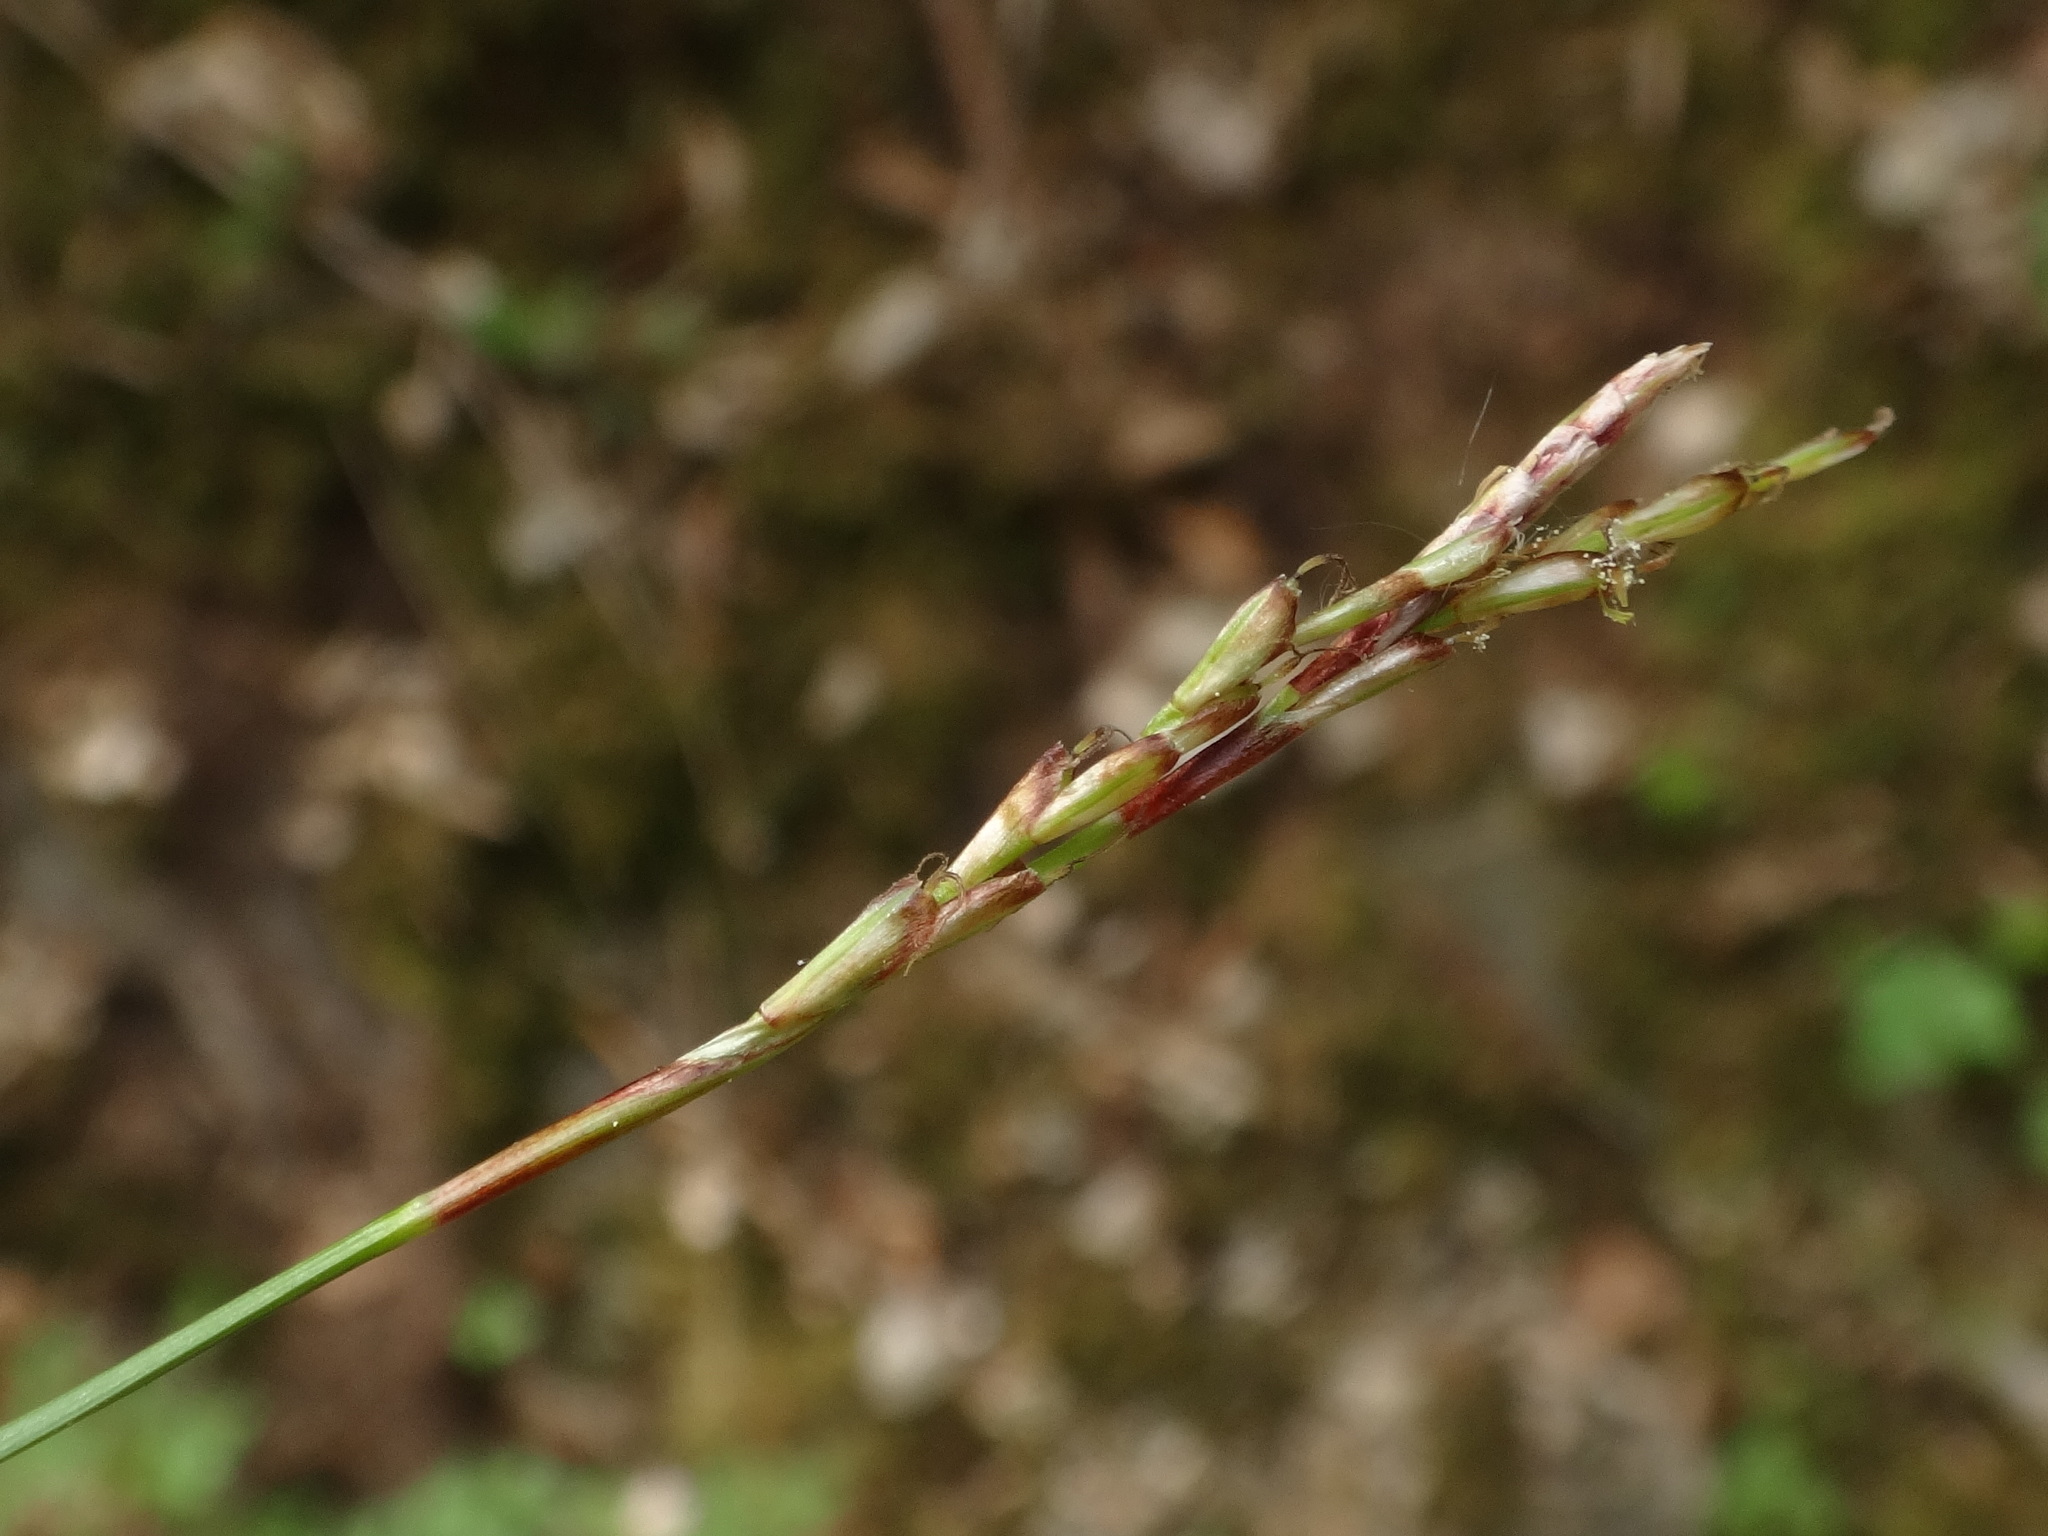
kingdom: Plantae
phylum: Tracheophyta
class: Liliopsida
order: Poales
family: Cyperaceae
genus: Carex
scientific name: Carex digitata
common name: Fingered sedge
